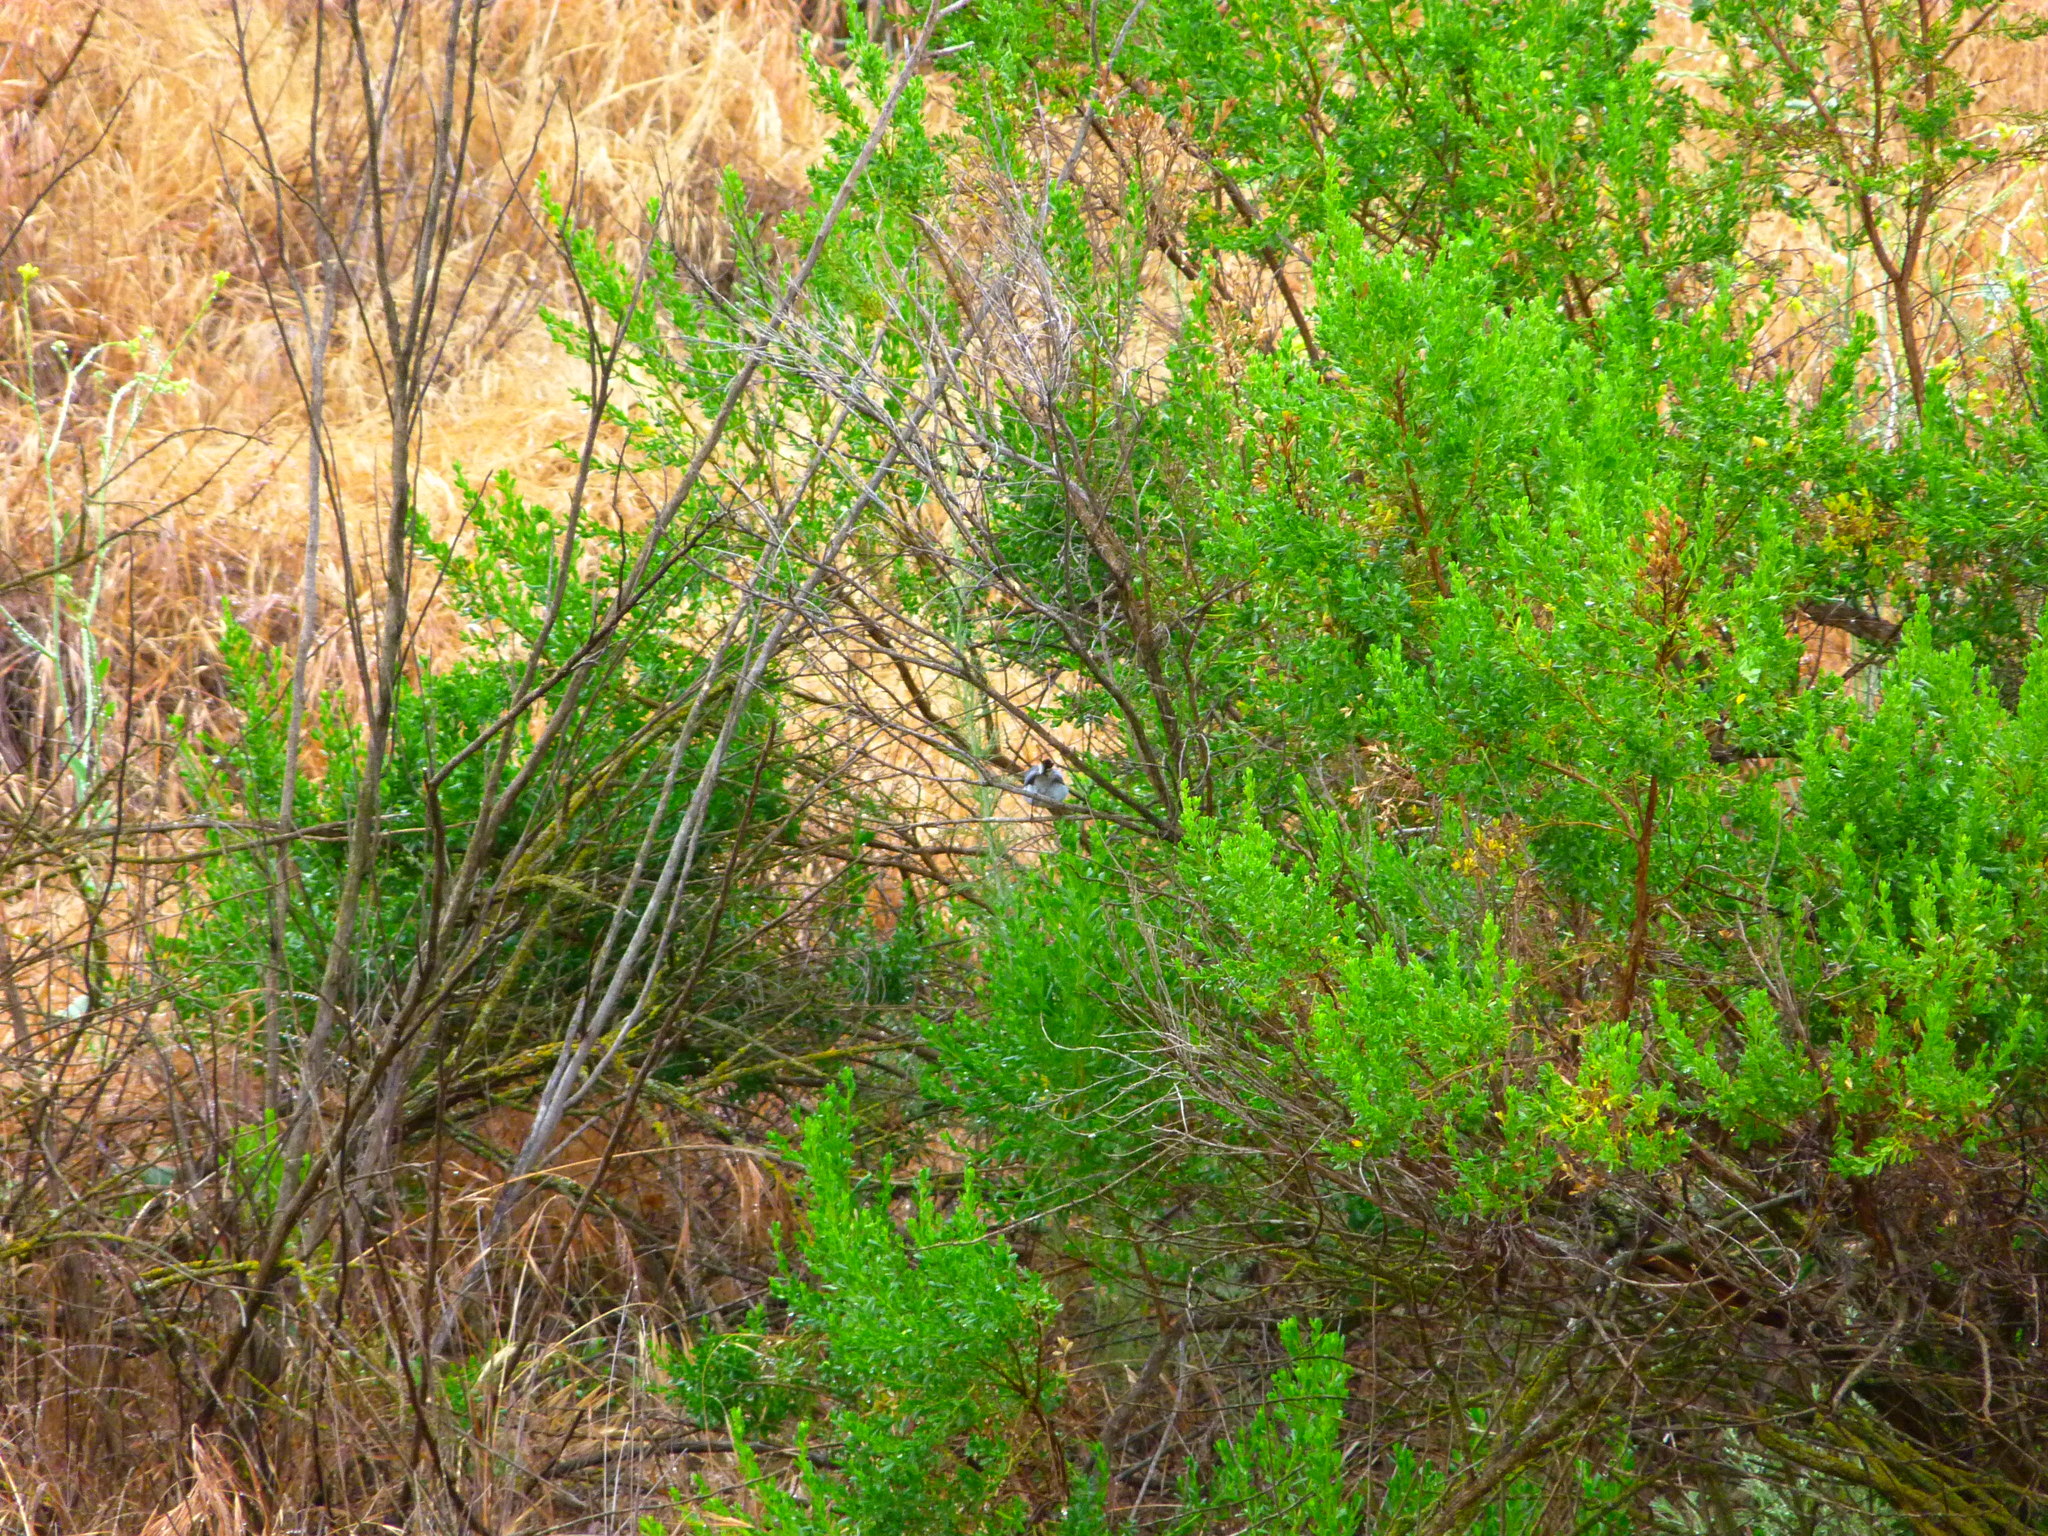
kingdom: Animalia
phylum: Chordata
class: Aves
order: Passeriformes
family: Polioptilidae
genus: Polioptila
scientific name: Polioptila caerulea
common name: Blue-gray gnatcatcher
